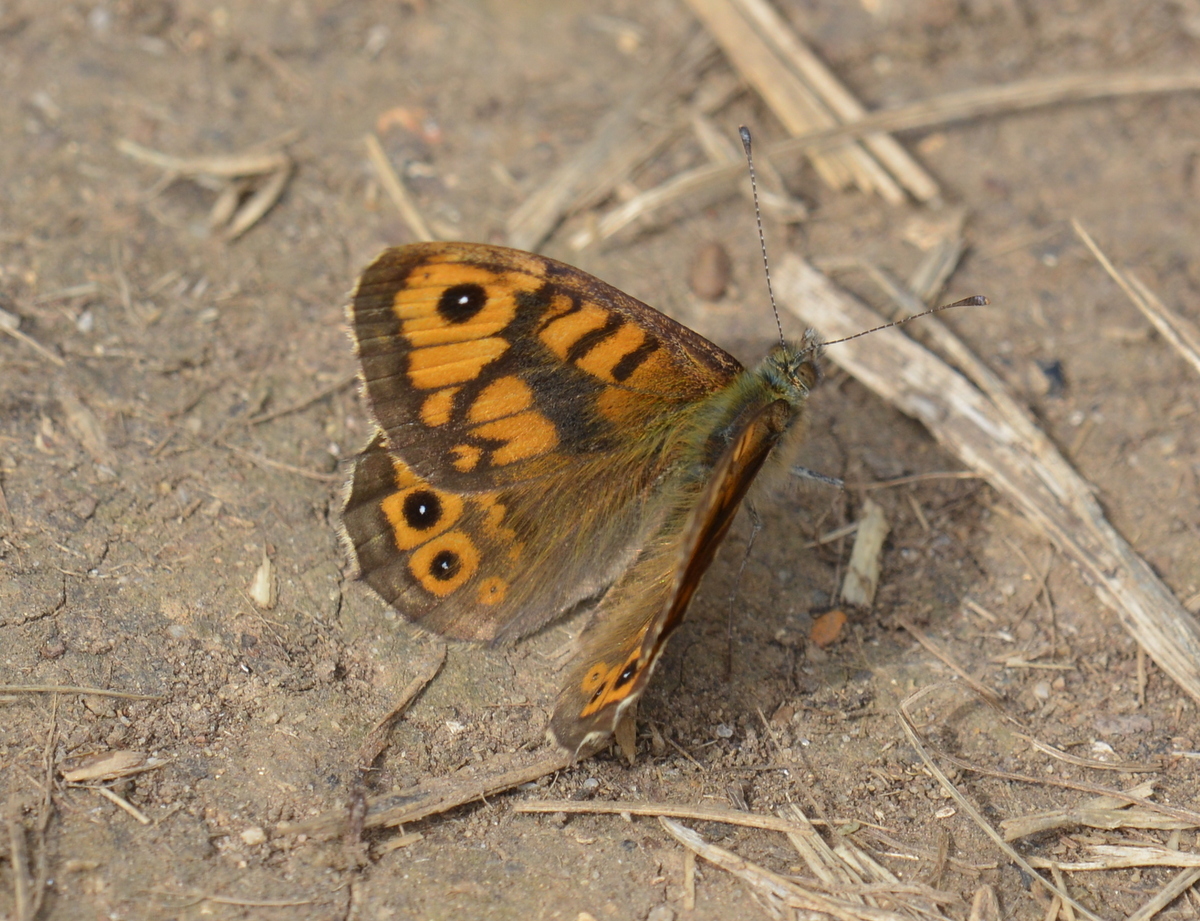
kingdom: Animalia
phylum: Arthropoda
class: Insecta
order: Lepidoptera
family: Nymphalidae
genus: Pararge
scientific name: Pararge Lasiommata megera
